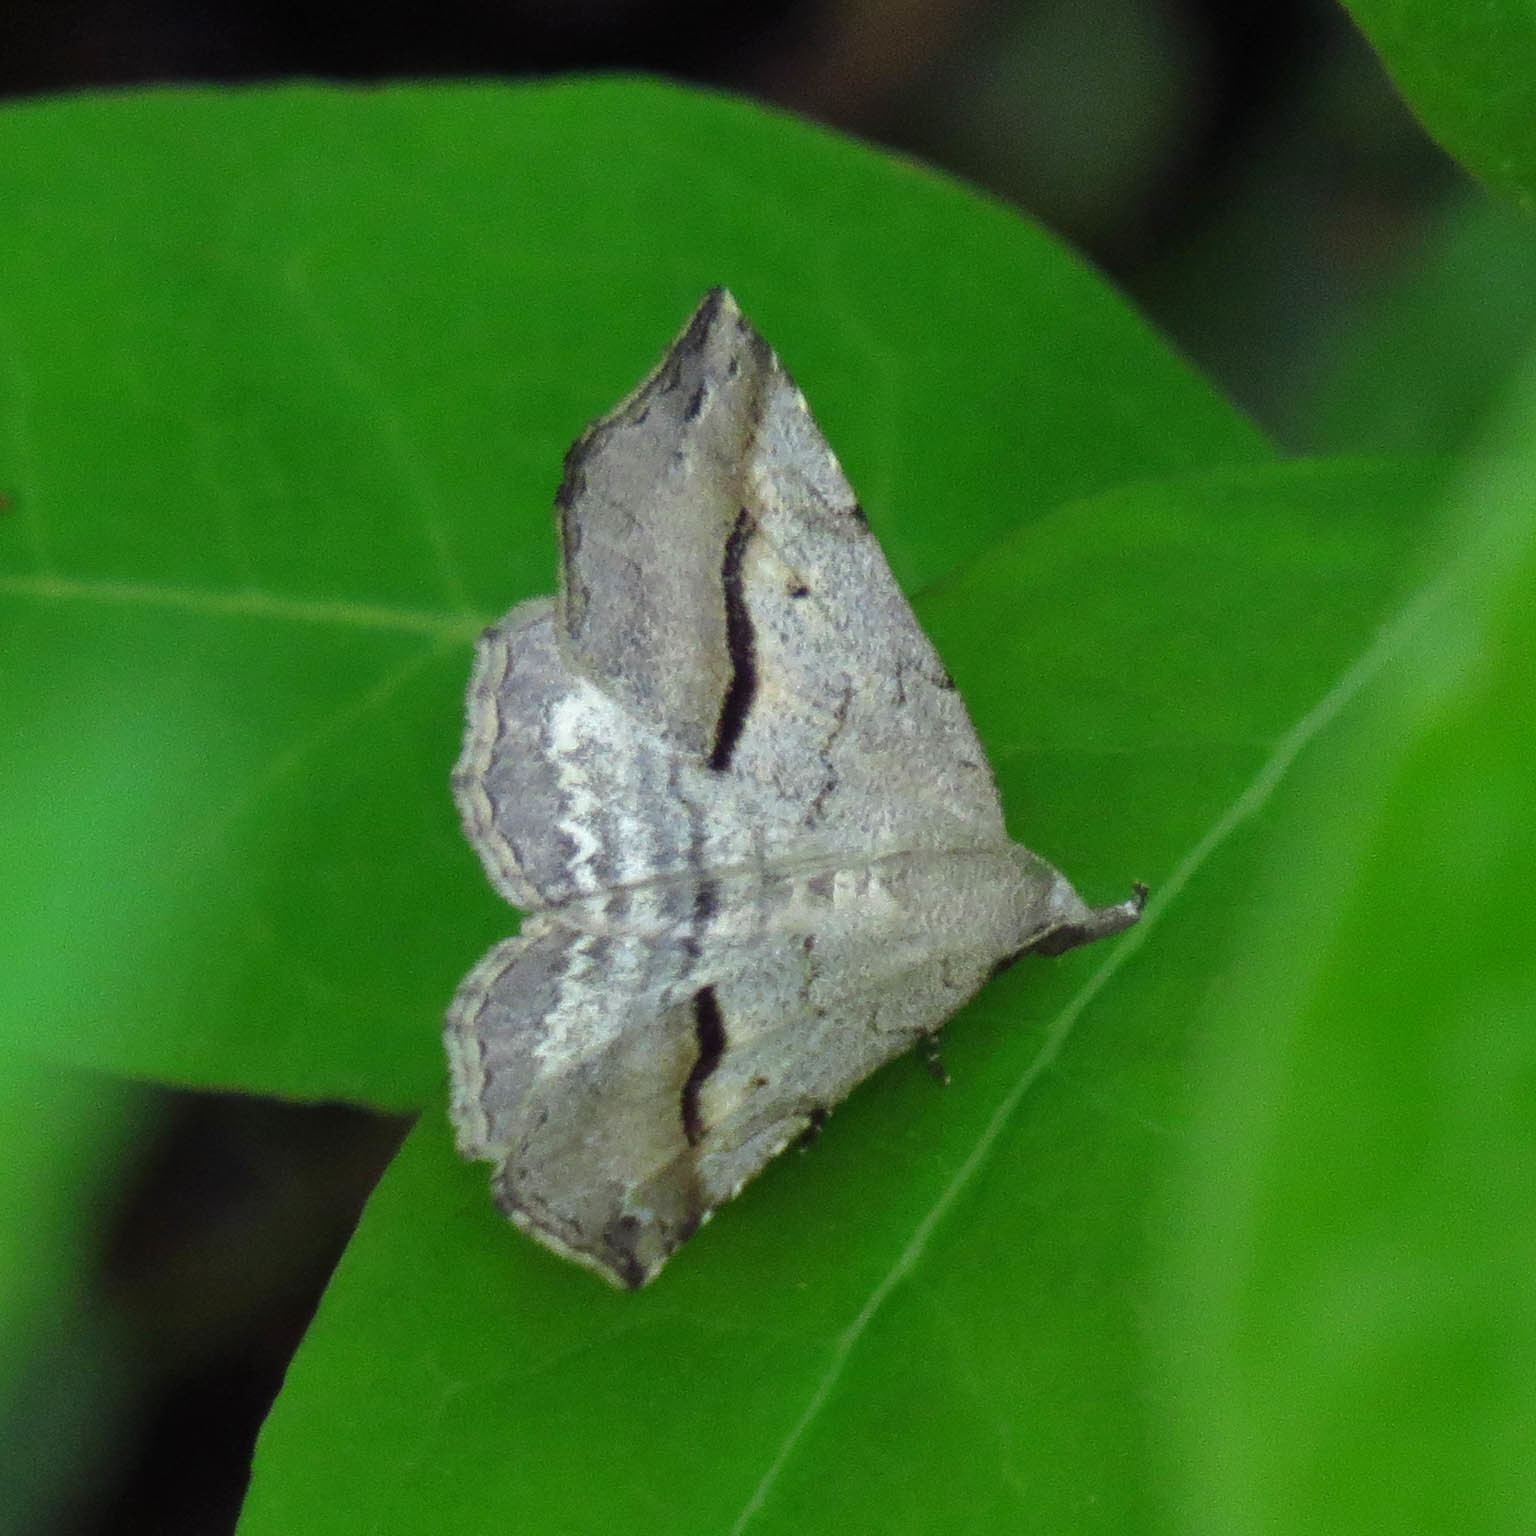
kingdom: Animalia
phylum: Arthropoda
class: Insecta
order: Lepidoptera
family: Erebidae
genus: Spargaloma
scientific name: Spargaloma perditalis
